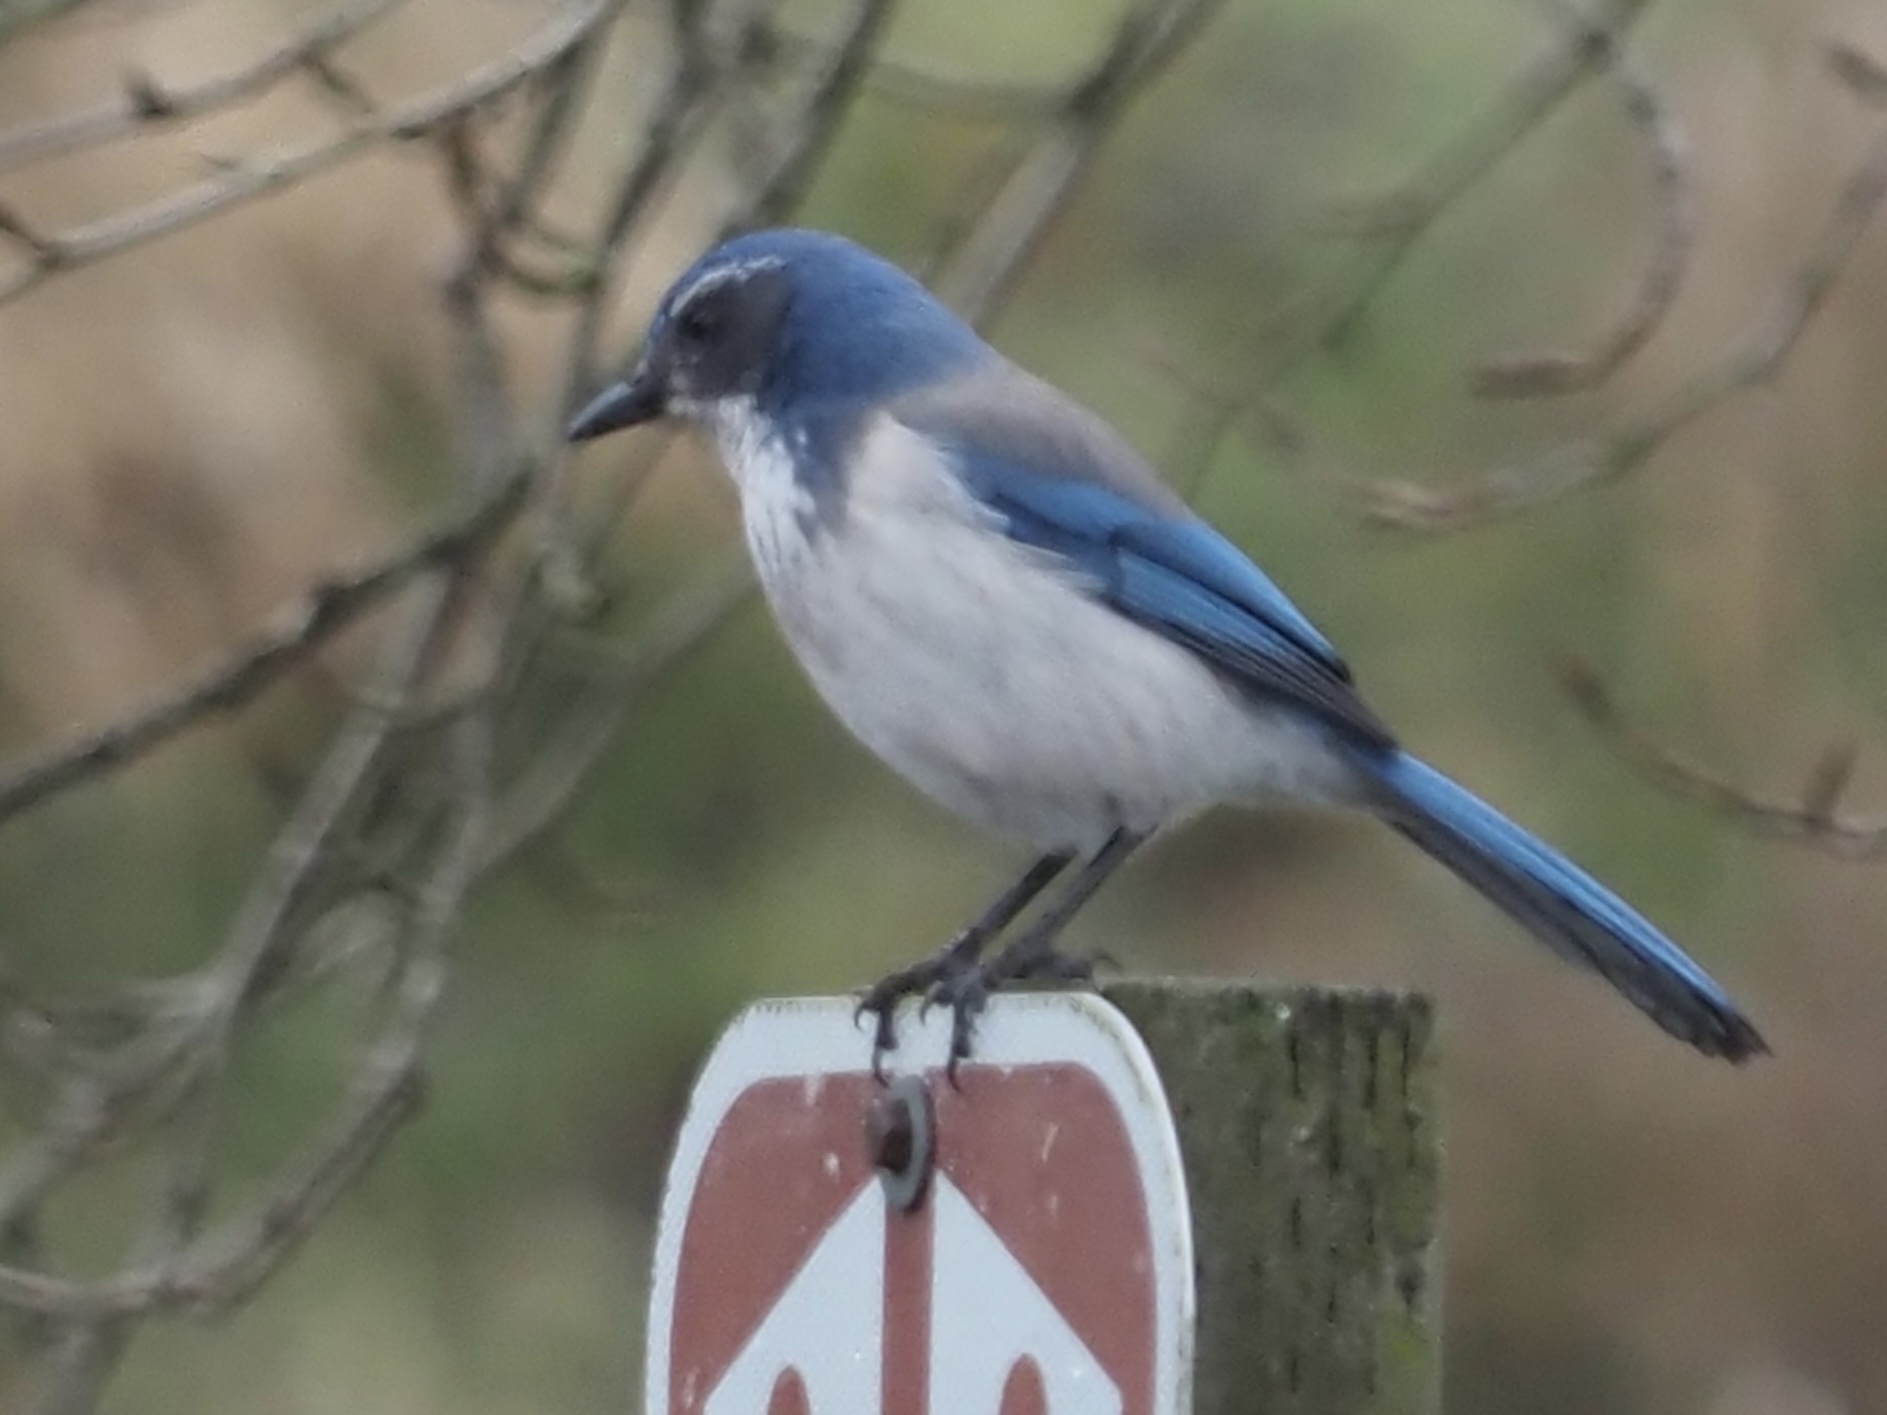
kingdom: Animalia
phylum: Chordata
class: Aves
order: Passeriformes
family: Corvidae
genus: Aphelocoma
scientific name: Aphelocoma californica
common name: California scrub-jay
